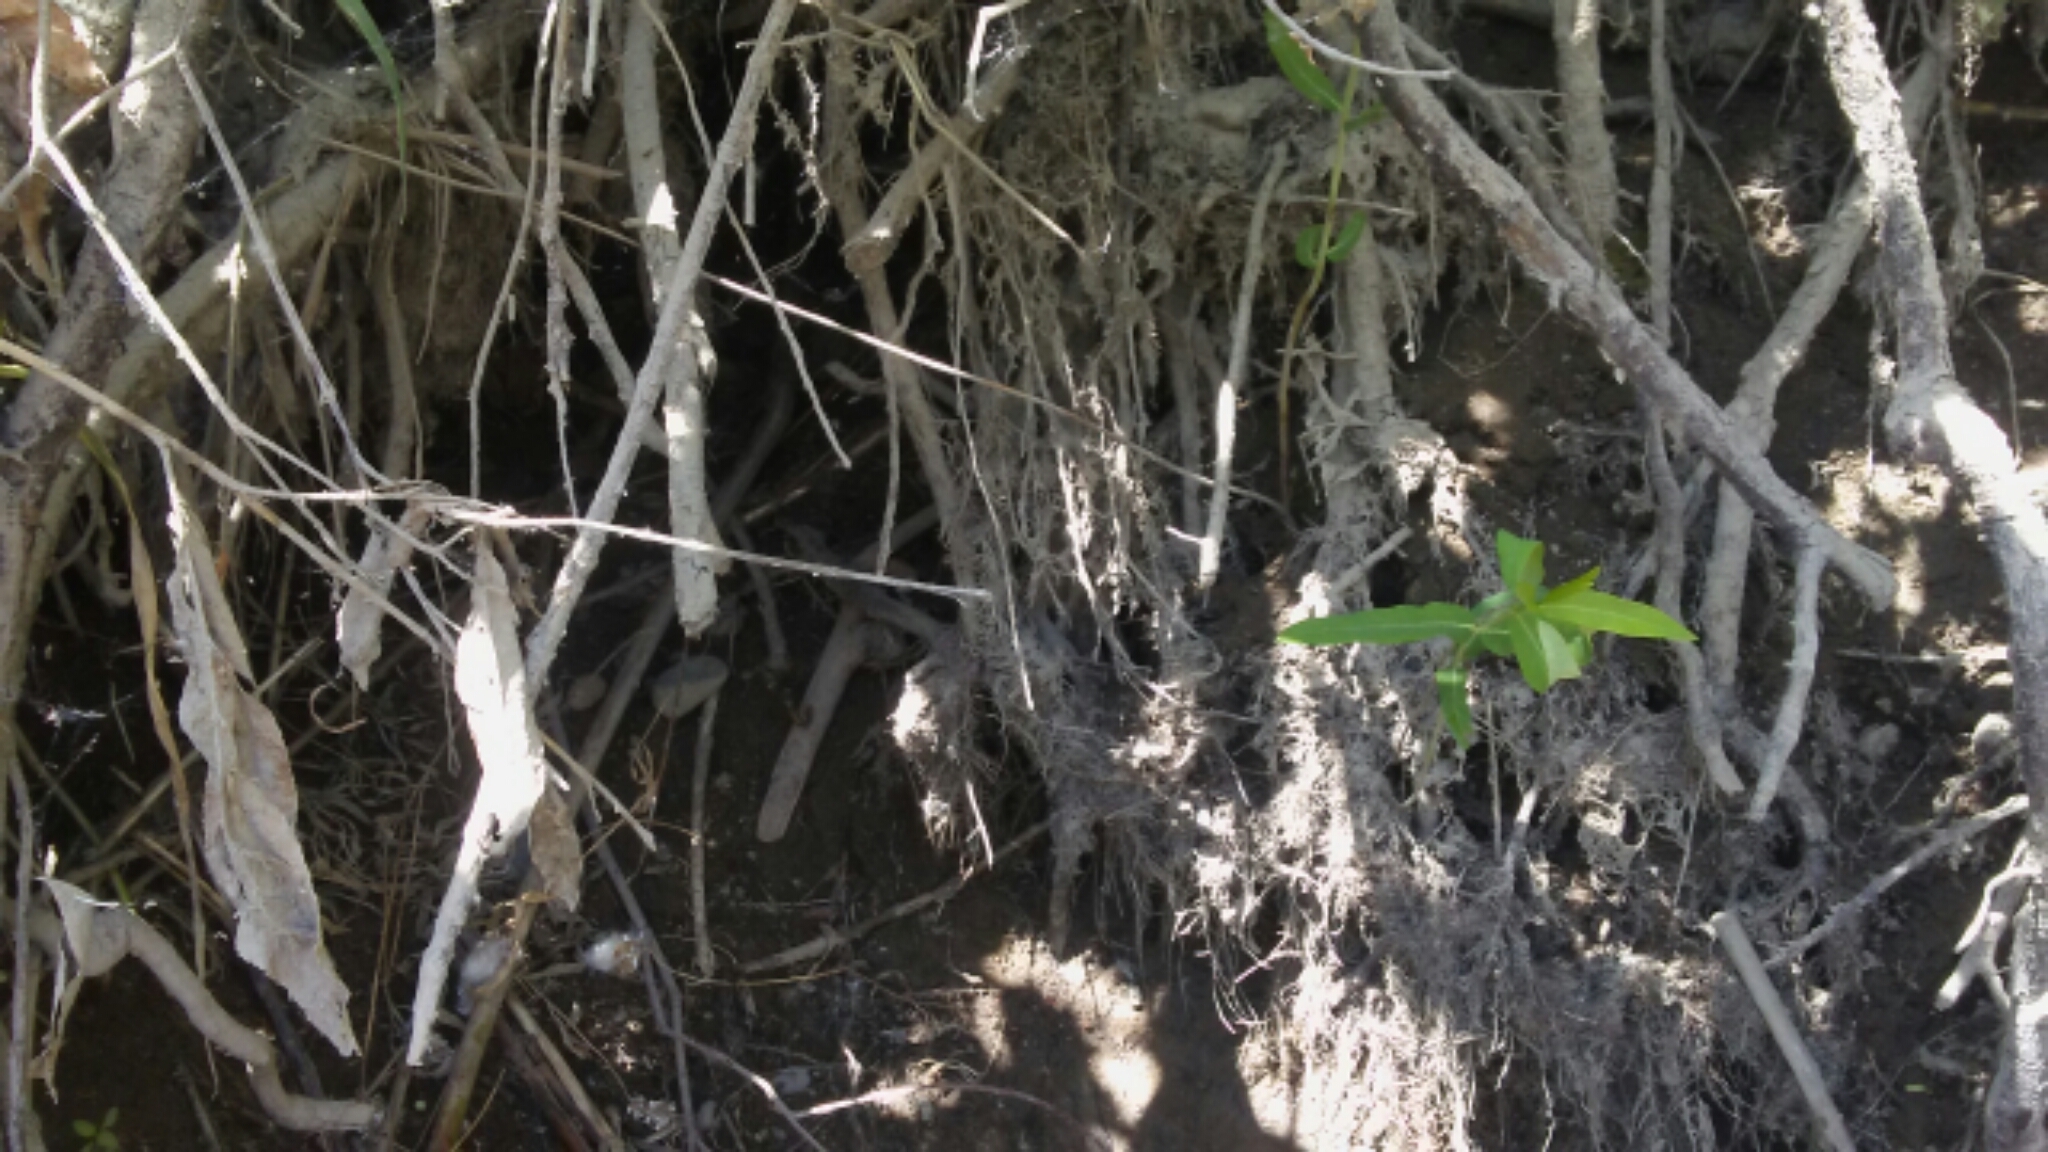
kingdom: Animalia
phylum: Chordata
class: Mammalia
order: Rodentia
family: Castoridae
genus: Castor
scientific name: Castor canadensis
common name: American beaver
